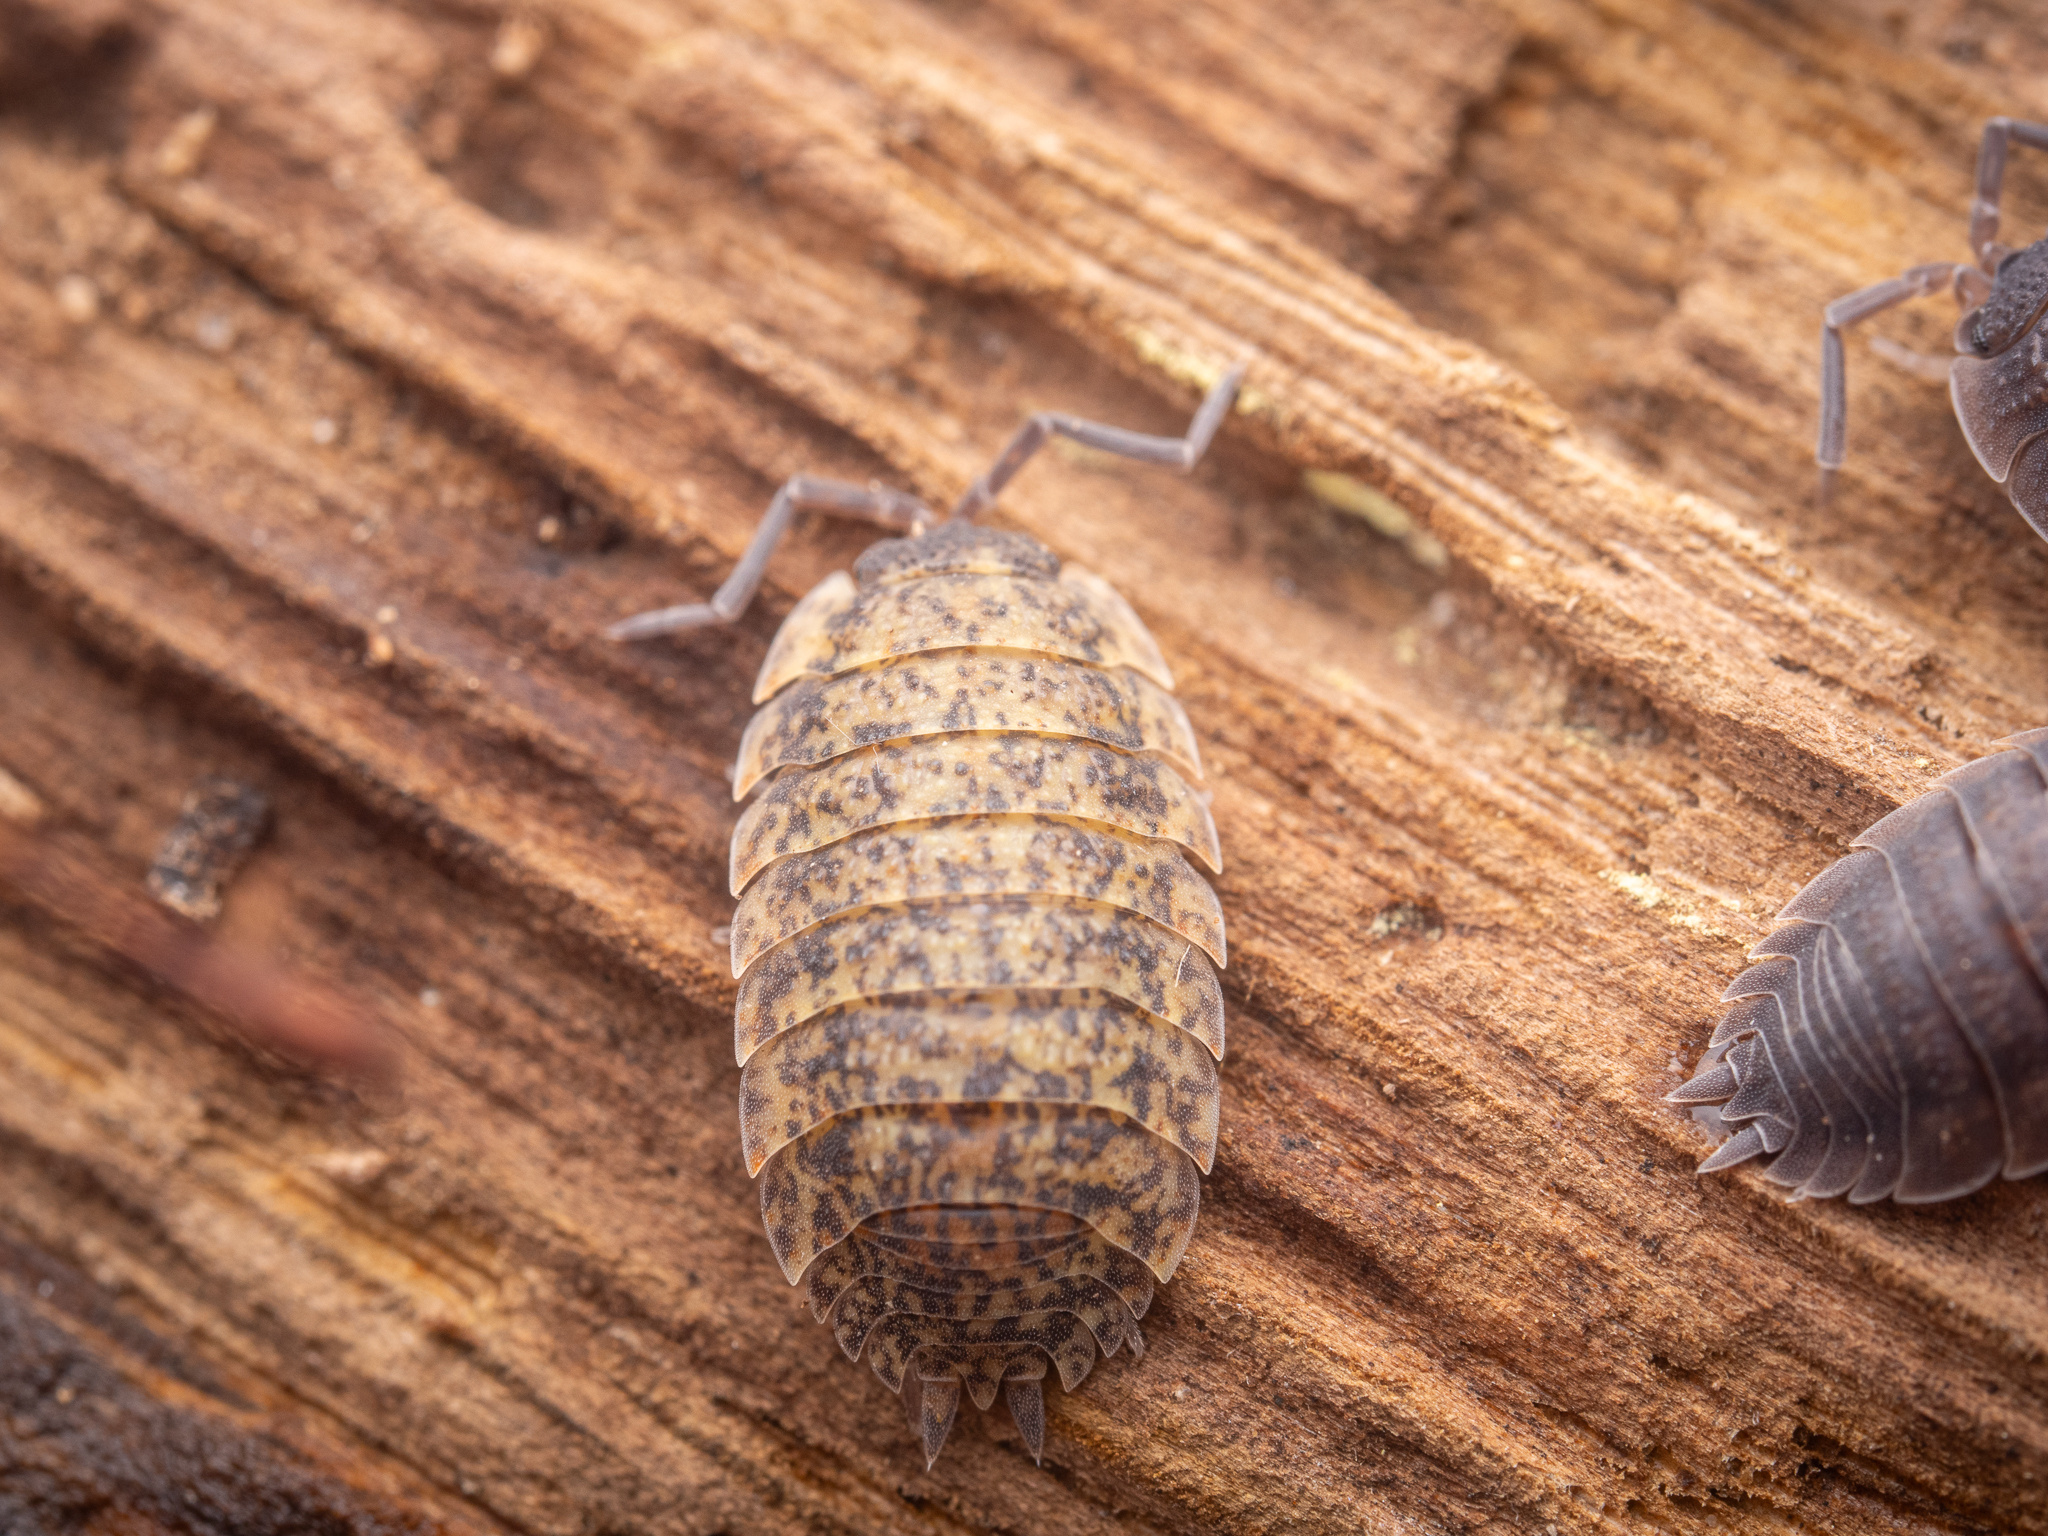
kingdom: Animalia
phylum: Arthropoda
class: Malacostraca
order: Isopoda
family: Porcellionidae
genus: Porcellio
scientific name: Porcellio scaber
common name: Common rough woodlouse
